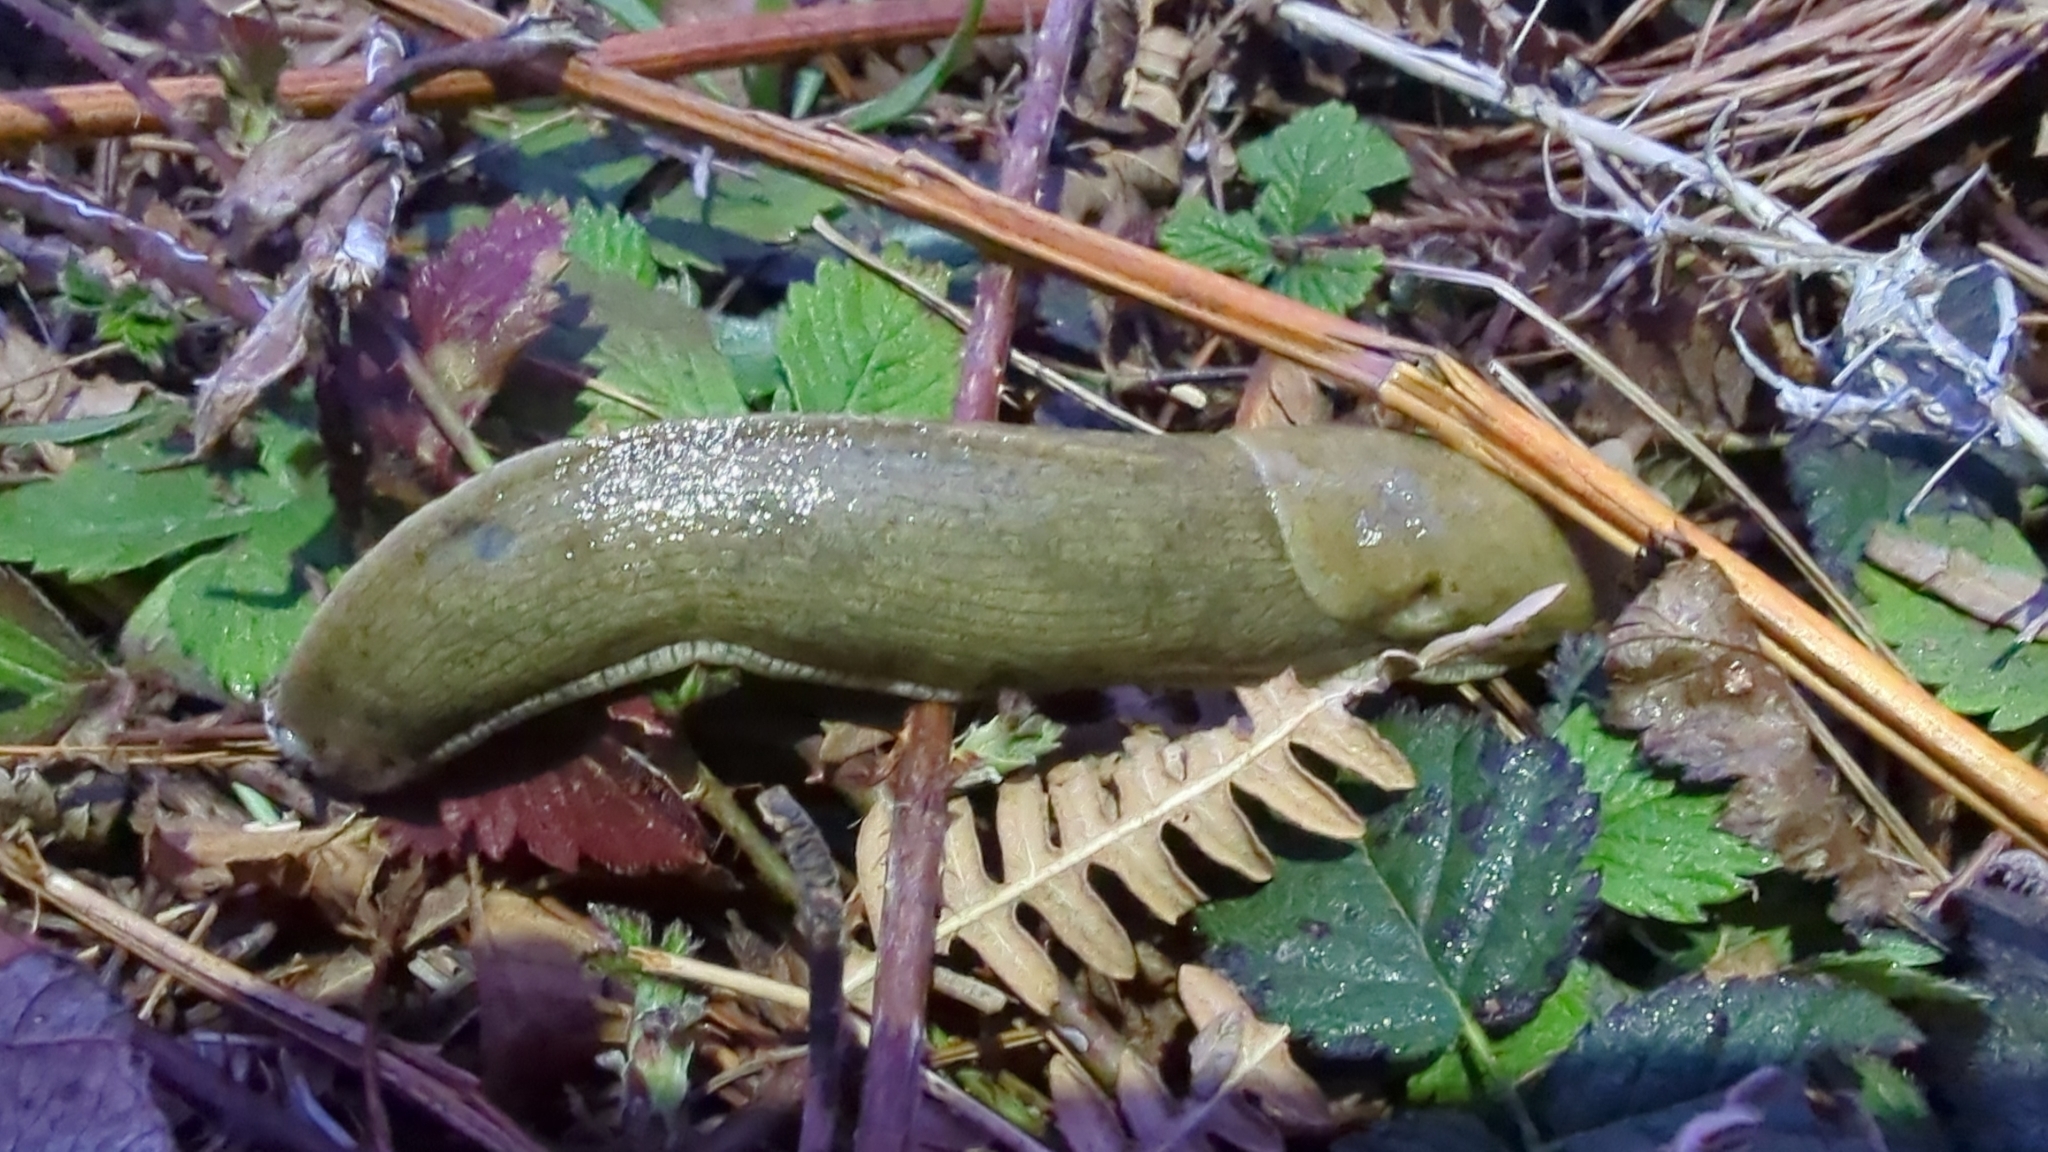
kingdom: Animalia
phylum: Mollusca
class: Gastropoda
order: Stylommatophora
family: Ariolimacidae
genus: Ariolimax
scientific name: Ariolimax columbianus
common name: Pacific banana slug
